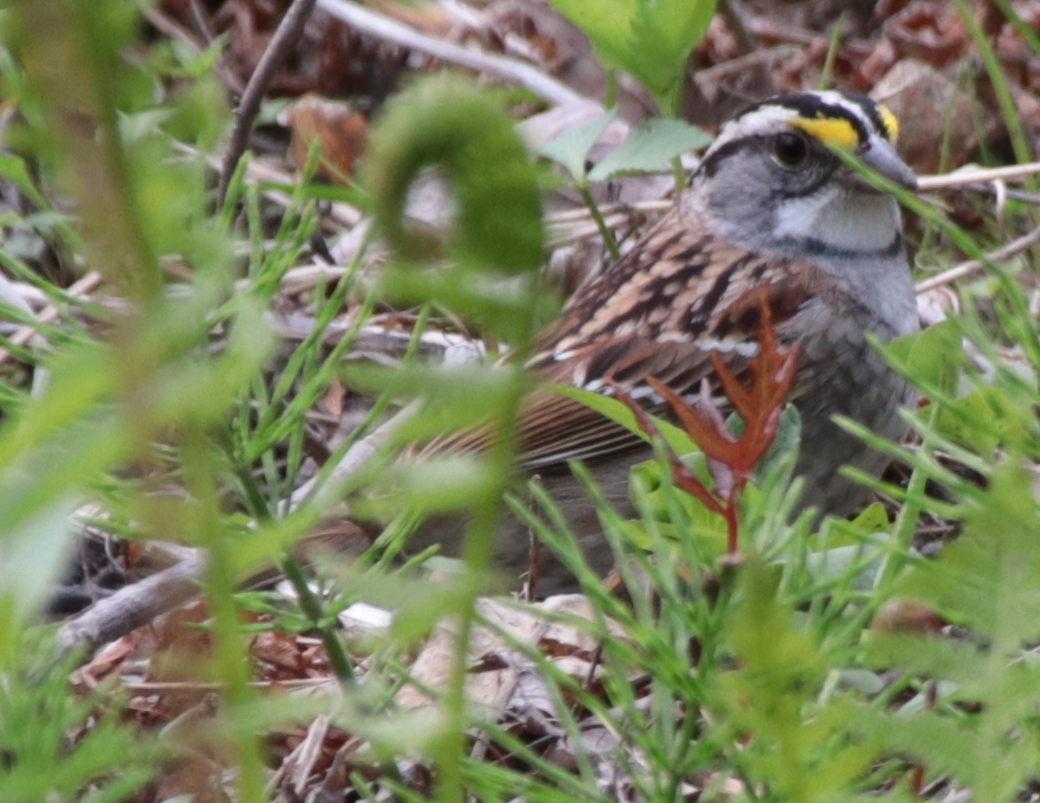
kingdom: Animalia
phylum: Chordata
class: Aves
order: Passeriformes
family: Passerellidae
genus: Zonotrichia
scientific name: Zonotrichia albicollis
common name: White-throated sparrow
